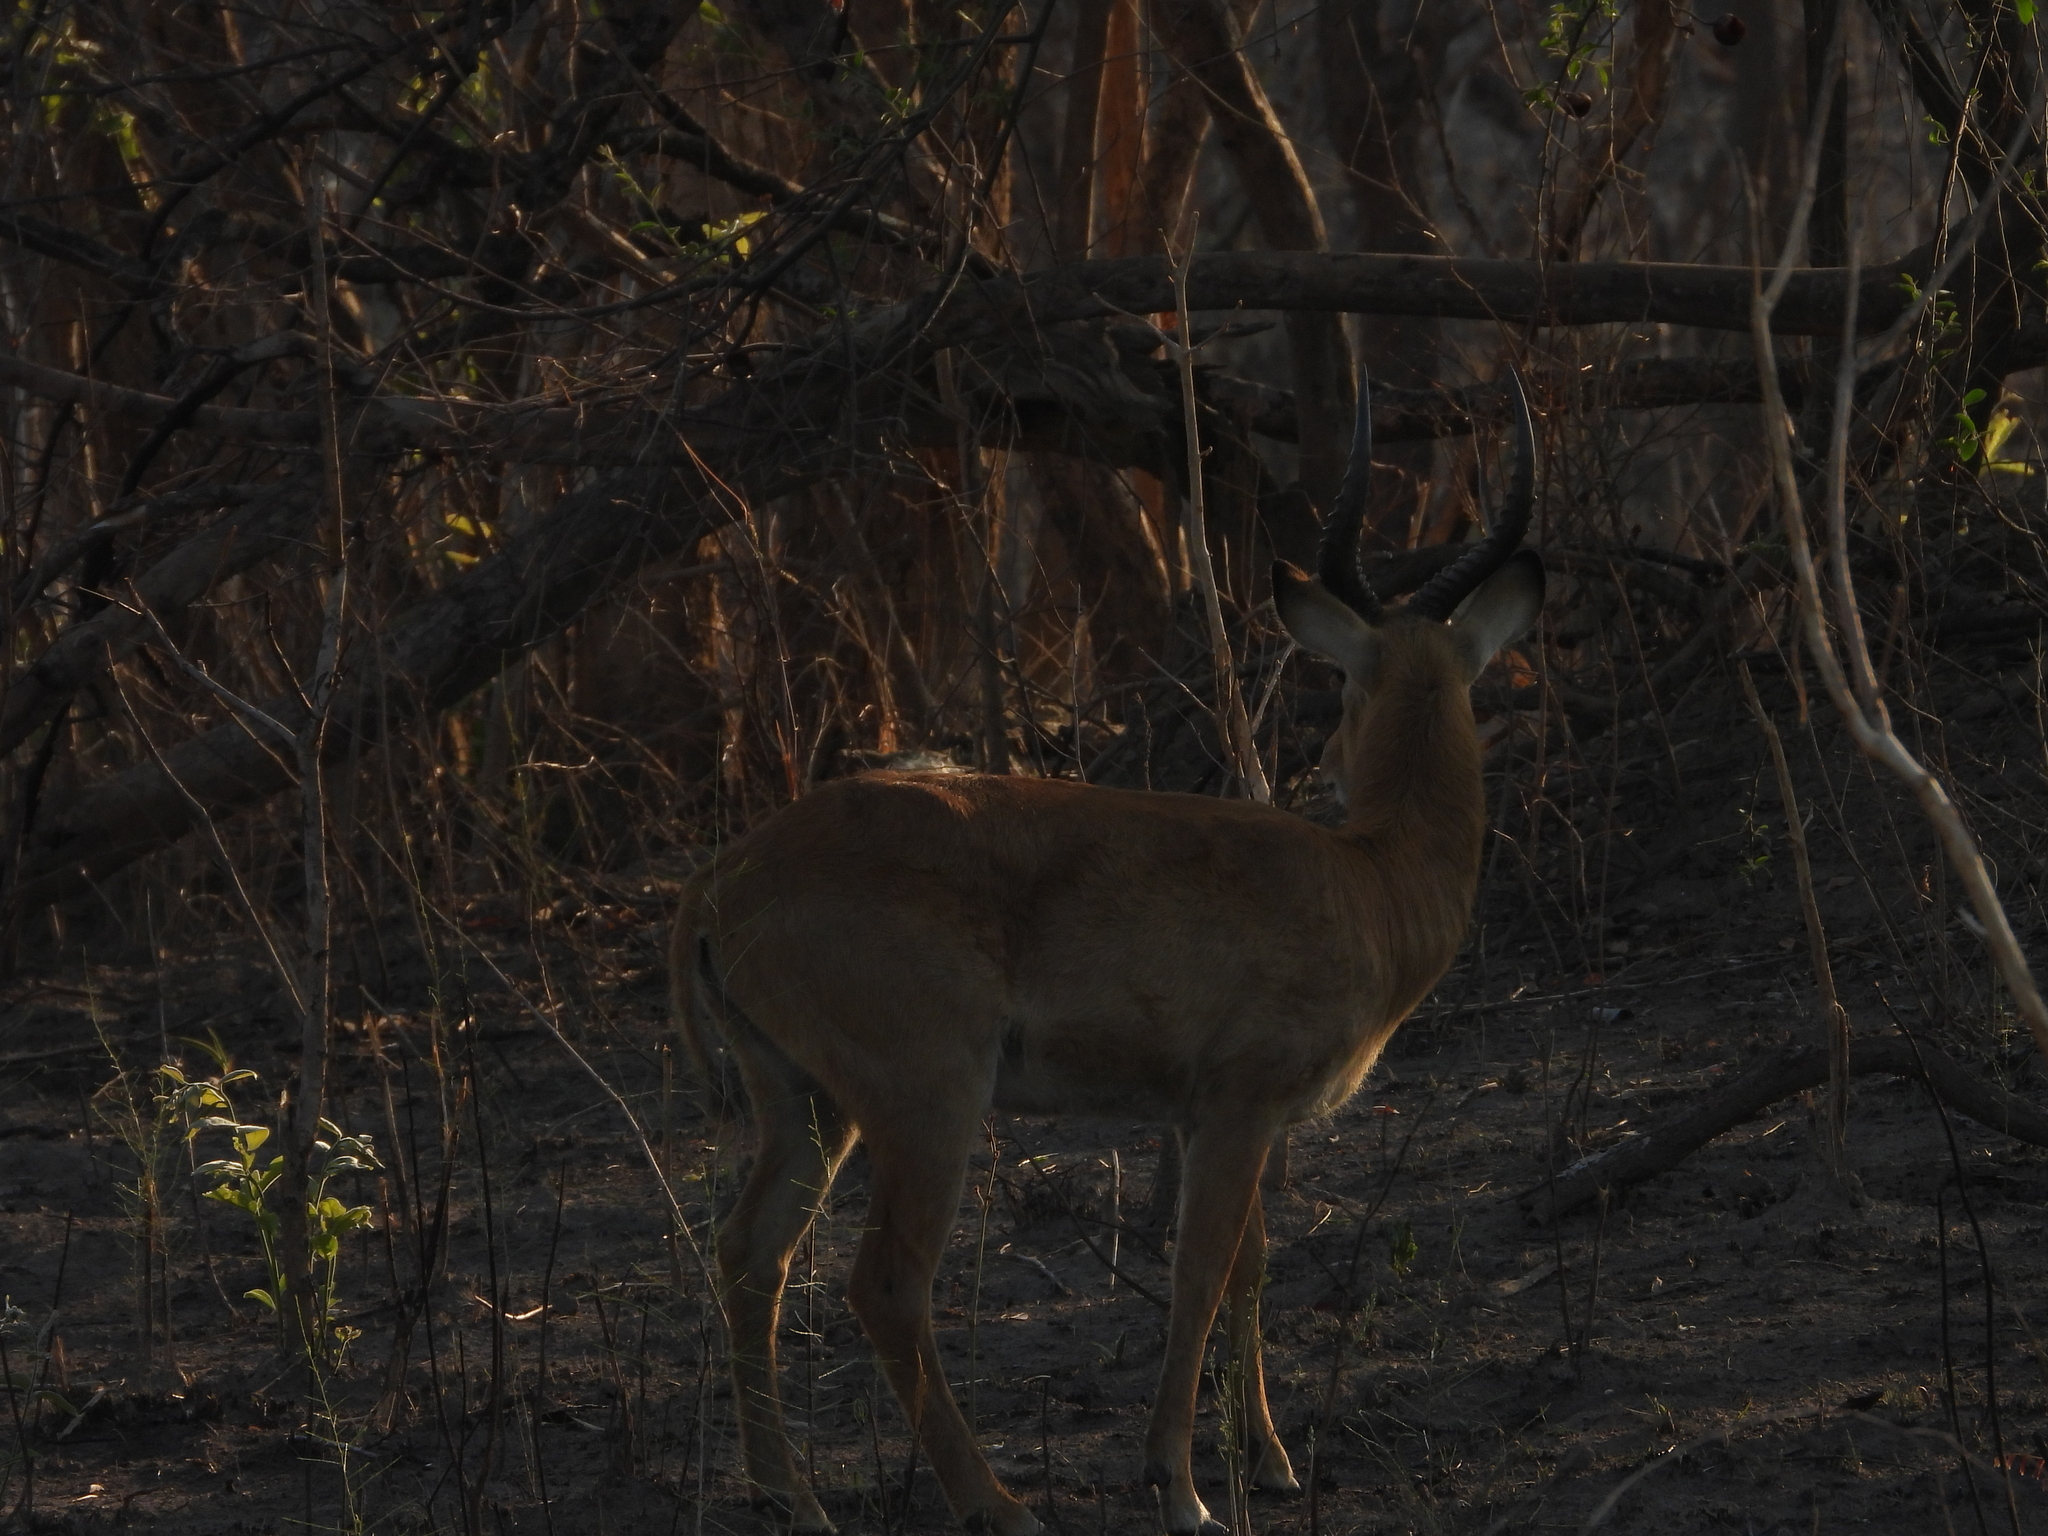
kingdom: Animalia
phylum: Chordata
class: Mammalia
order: Artiodactyla
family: Bovidae
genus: Kobus
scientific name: Kobus vardonii
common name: Puku
